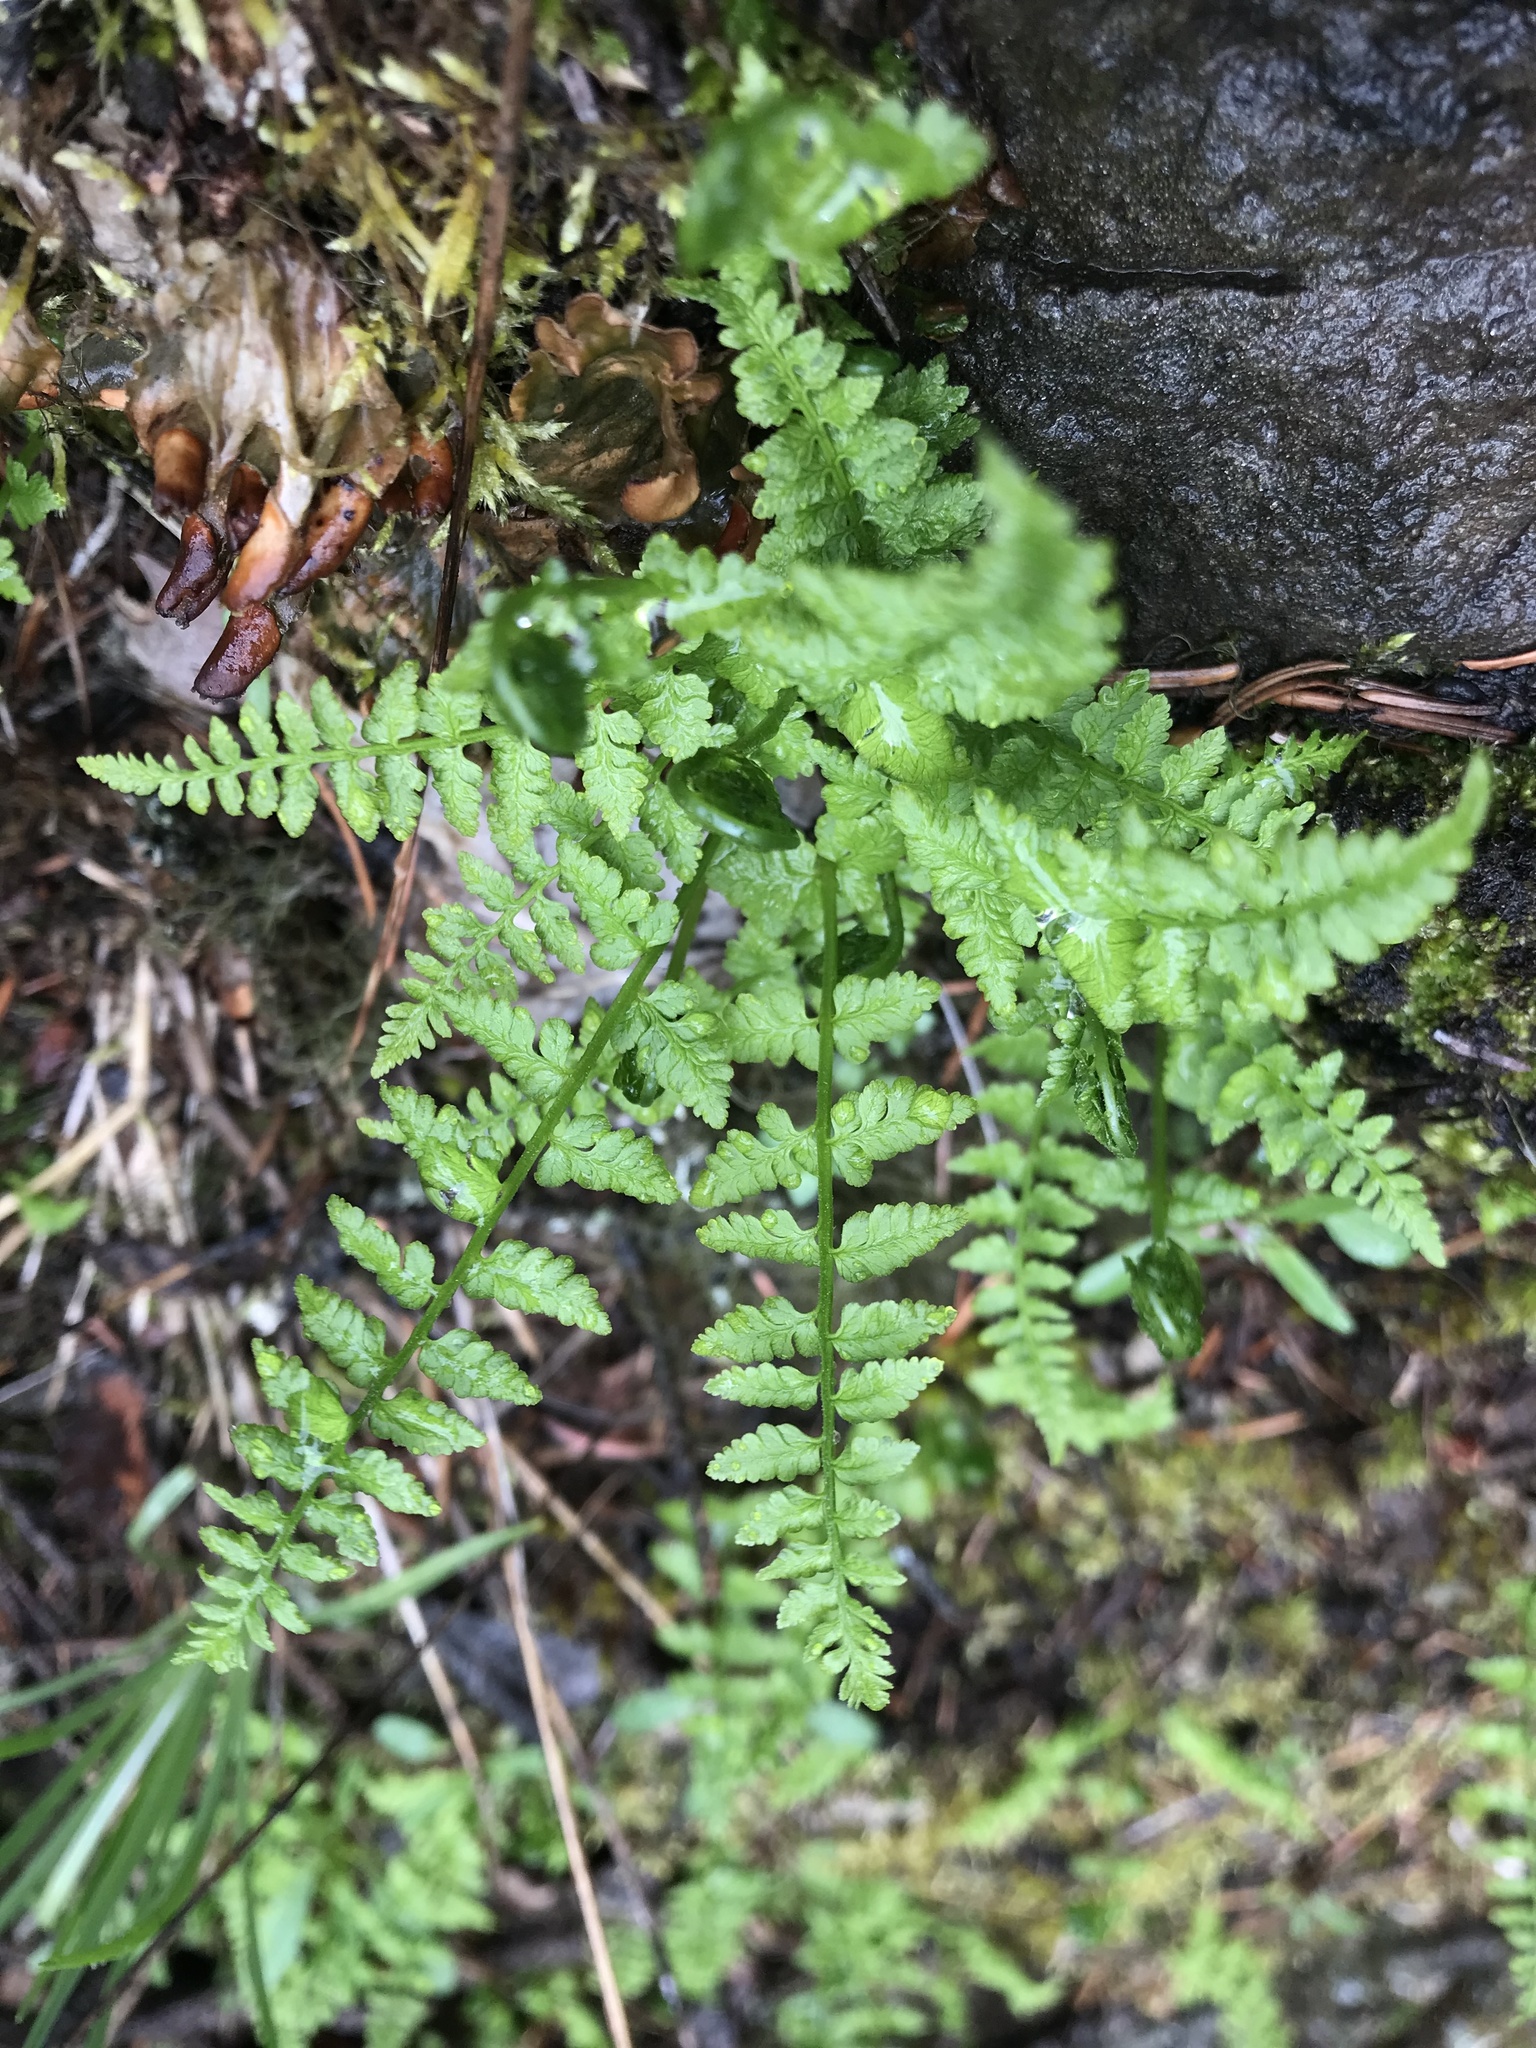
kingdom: Plantae
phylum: Tracheophyta
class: Polypodiopsida
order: Polypodiales
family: Cystopteridaceae
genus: Cystopteris
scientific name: Cystopteris fragilis
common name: Brittle bladder fern
